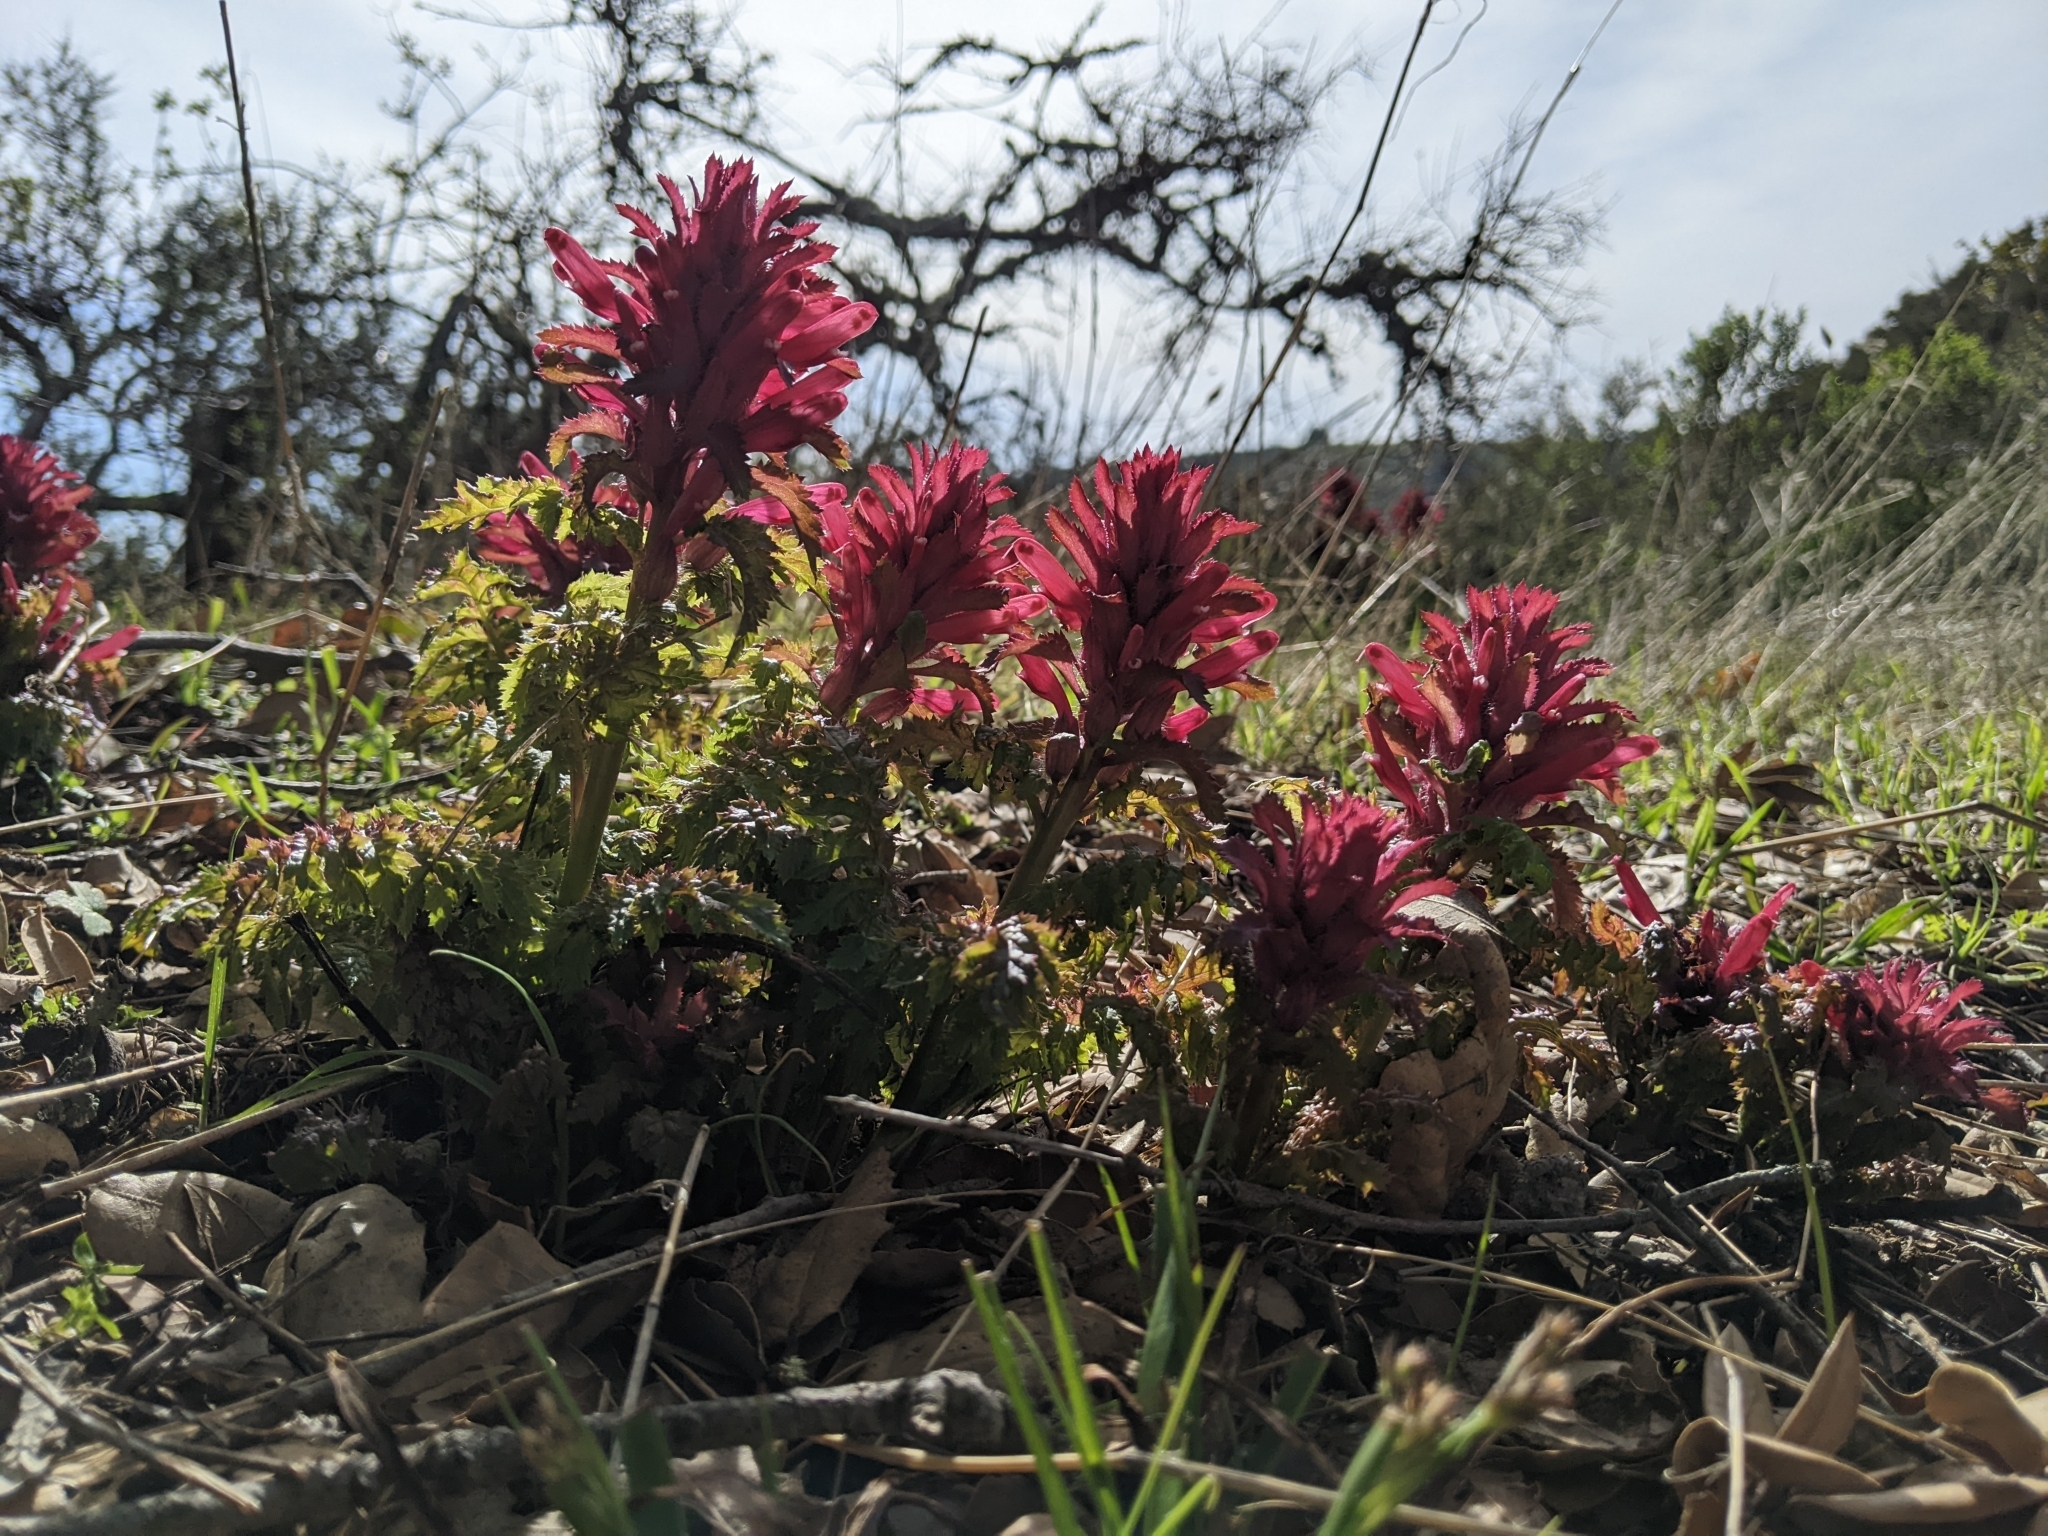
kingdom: Plantae
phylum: Tracheophyta
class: Magnoliopsida
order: Lamiales
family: Orobanchaceae
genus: Pedicularis
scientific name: Pedicularis densiflora
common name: Indian warrior
